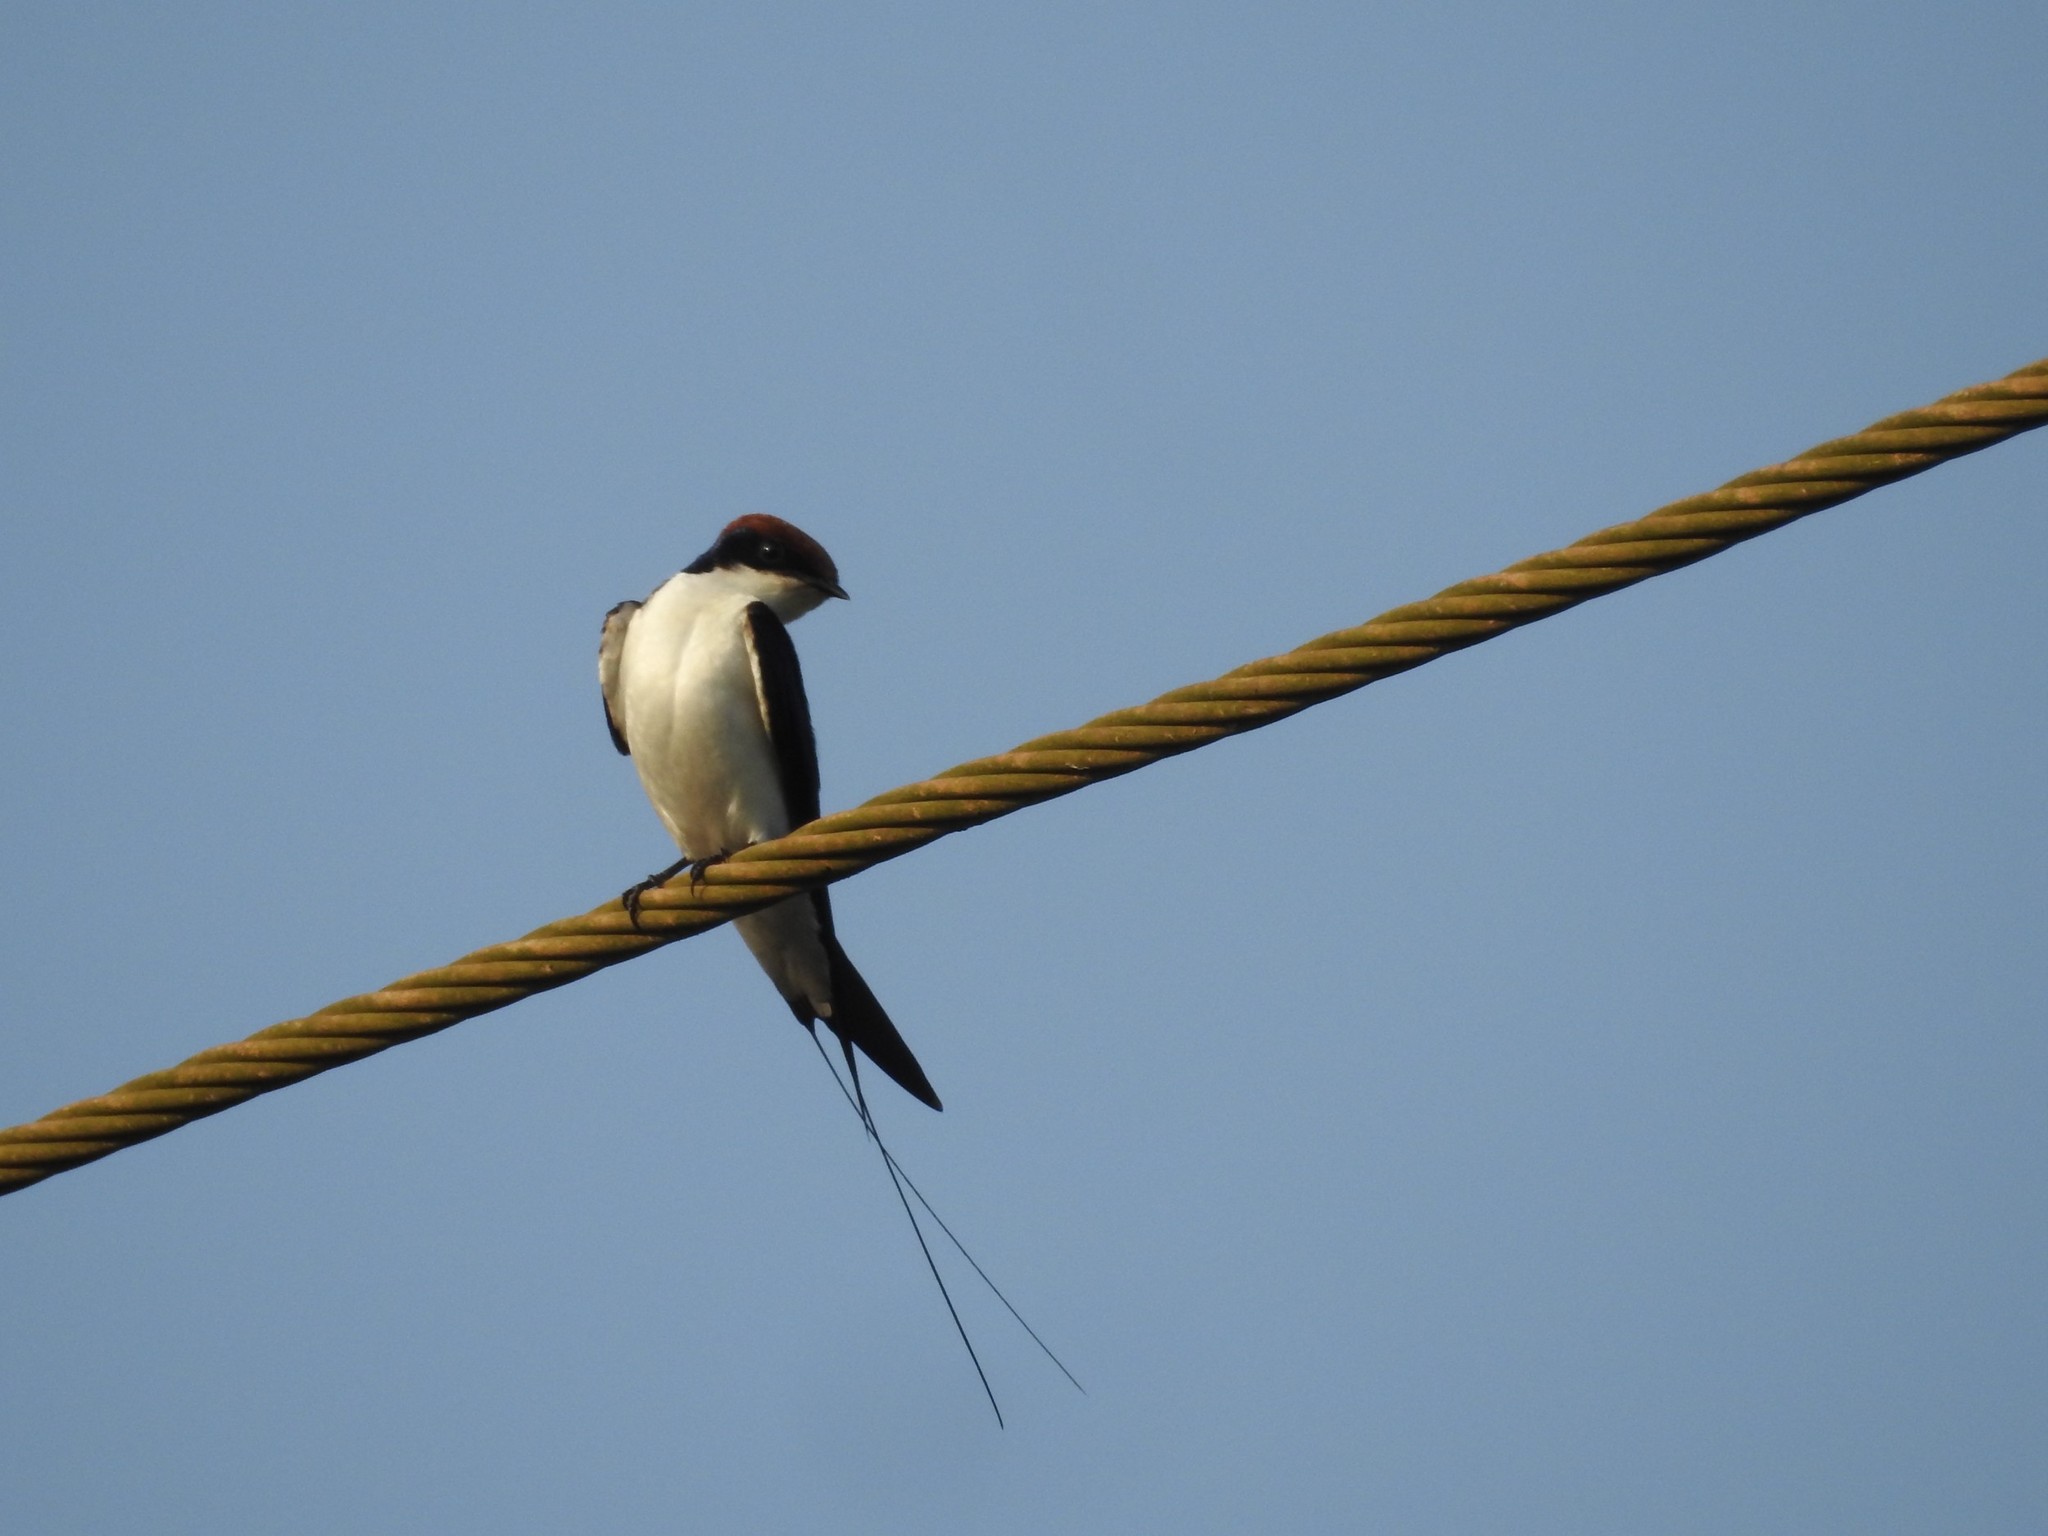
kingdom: Animalia
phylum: Chordata
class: Aves
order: Passeriformes
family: Hirundinidae
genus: Hirundo
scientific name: Hirundo smithii
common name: Wire-tailed swallow
